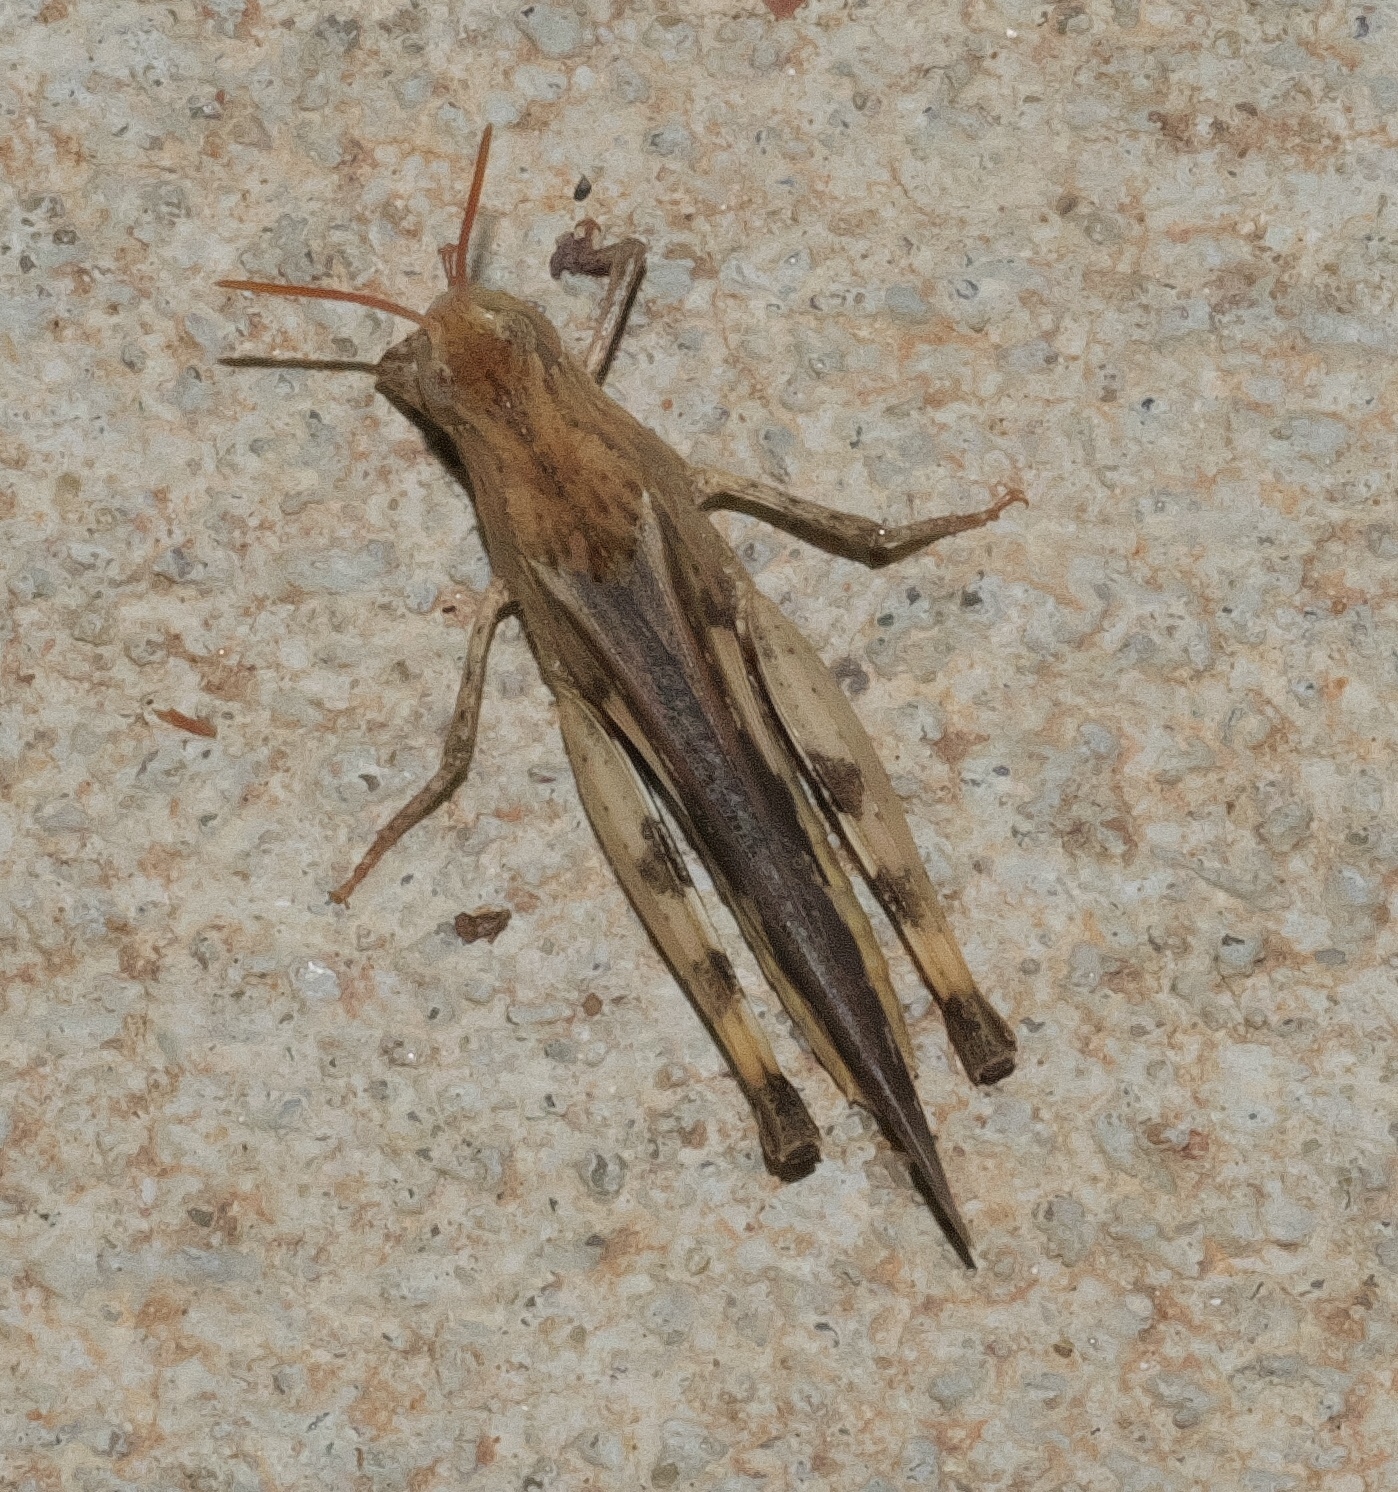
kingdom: Animalia
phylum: Arthropoda
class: Insecta
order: Orthoptera
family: Acrididae
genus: Chortophaga
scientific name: Chortophaga viridifasciata
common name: Green-striped grasshopper
